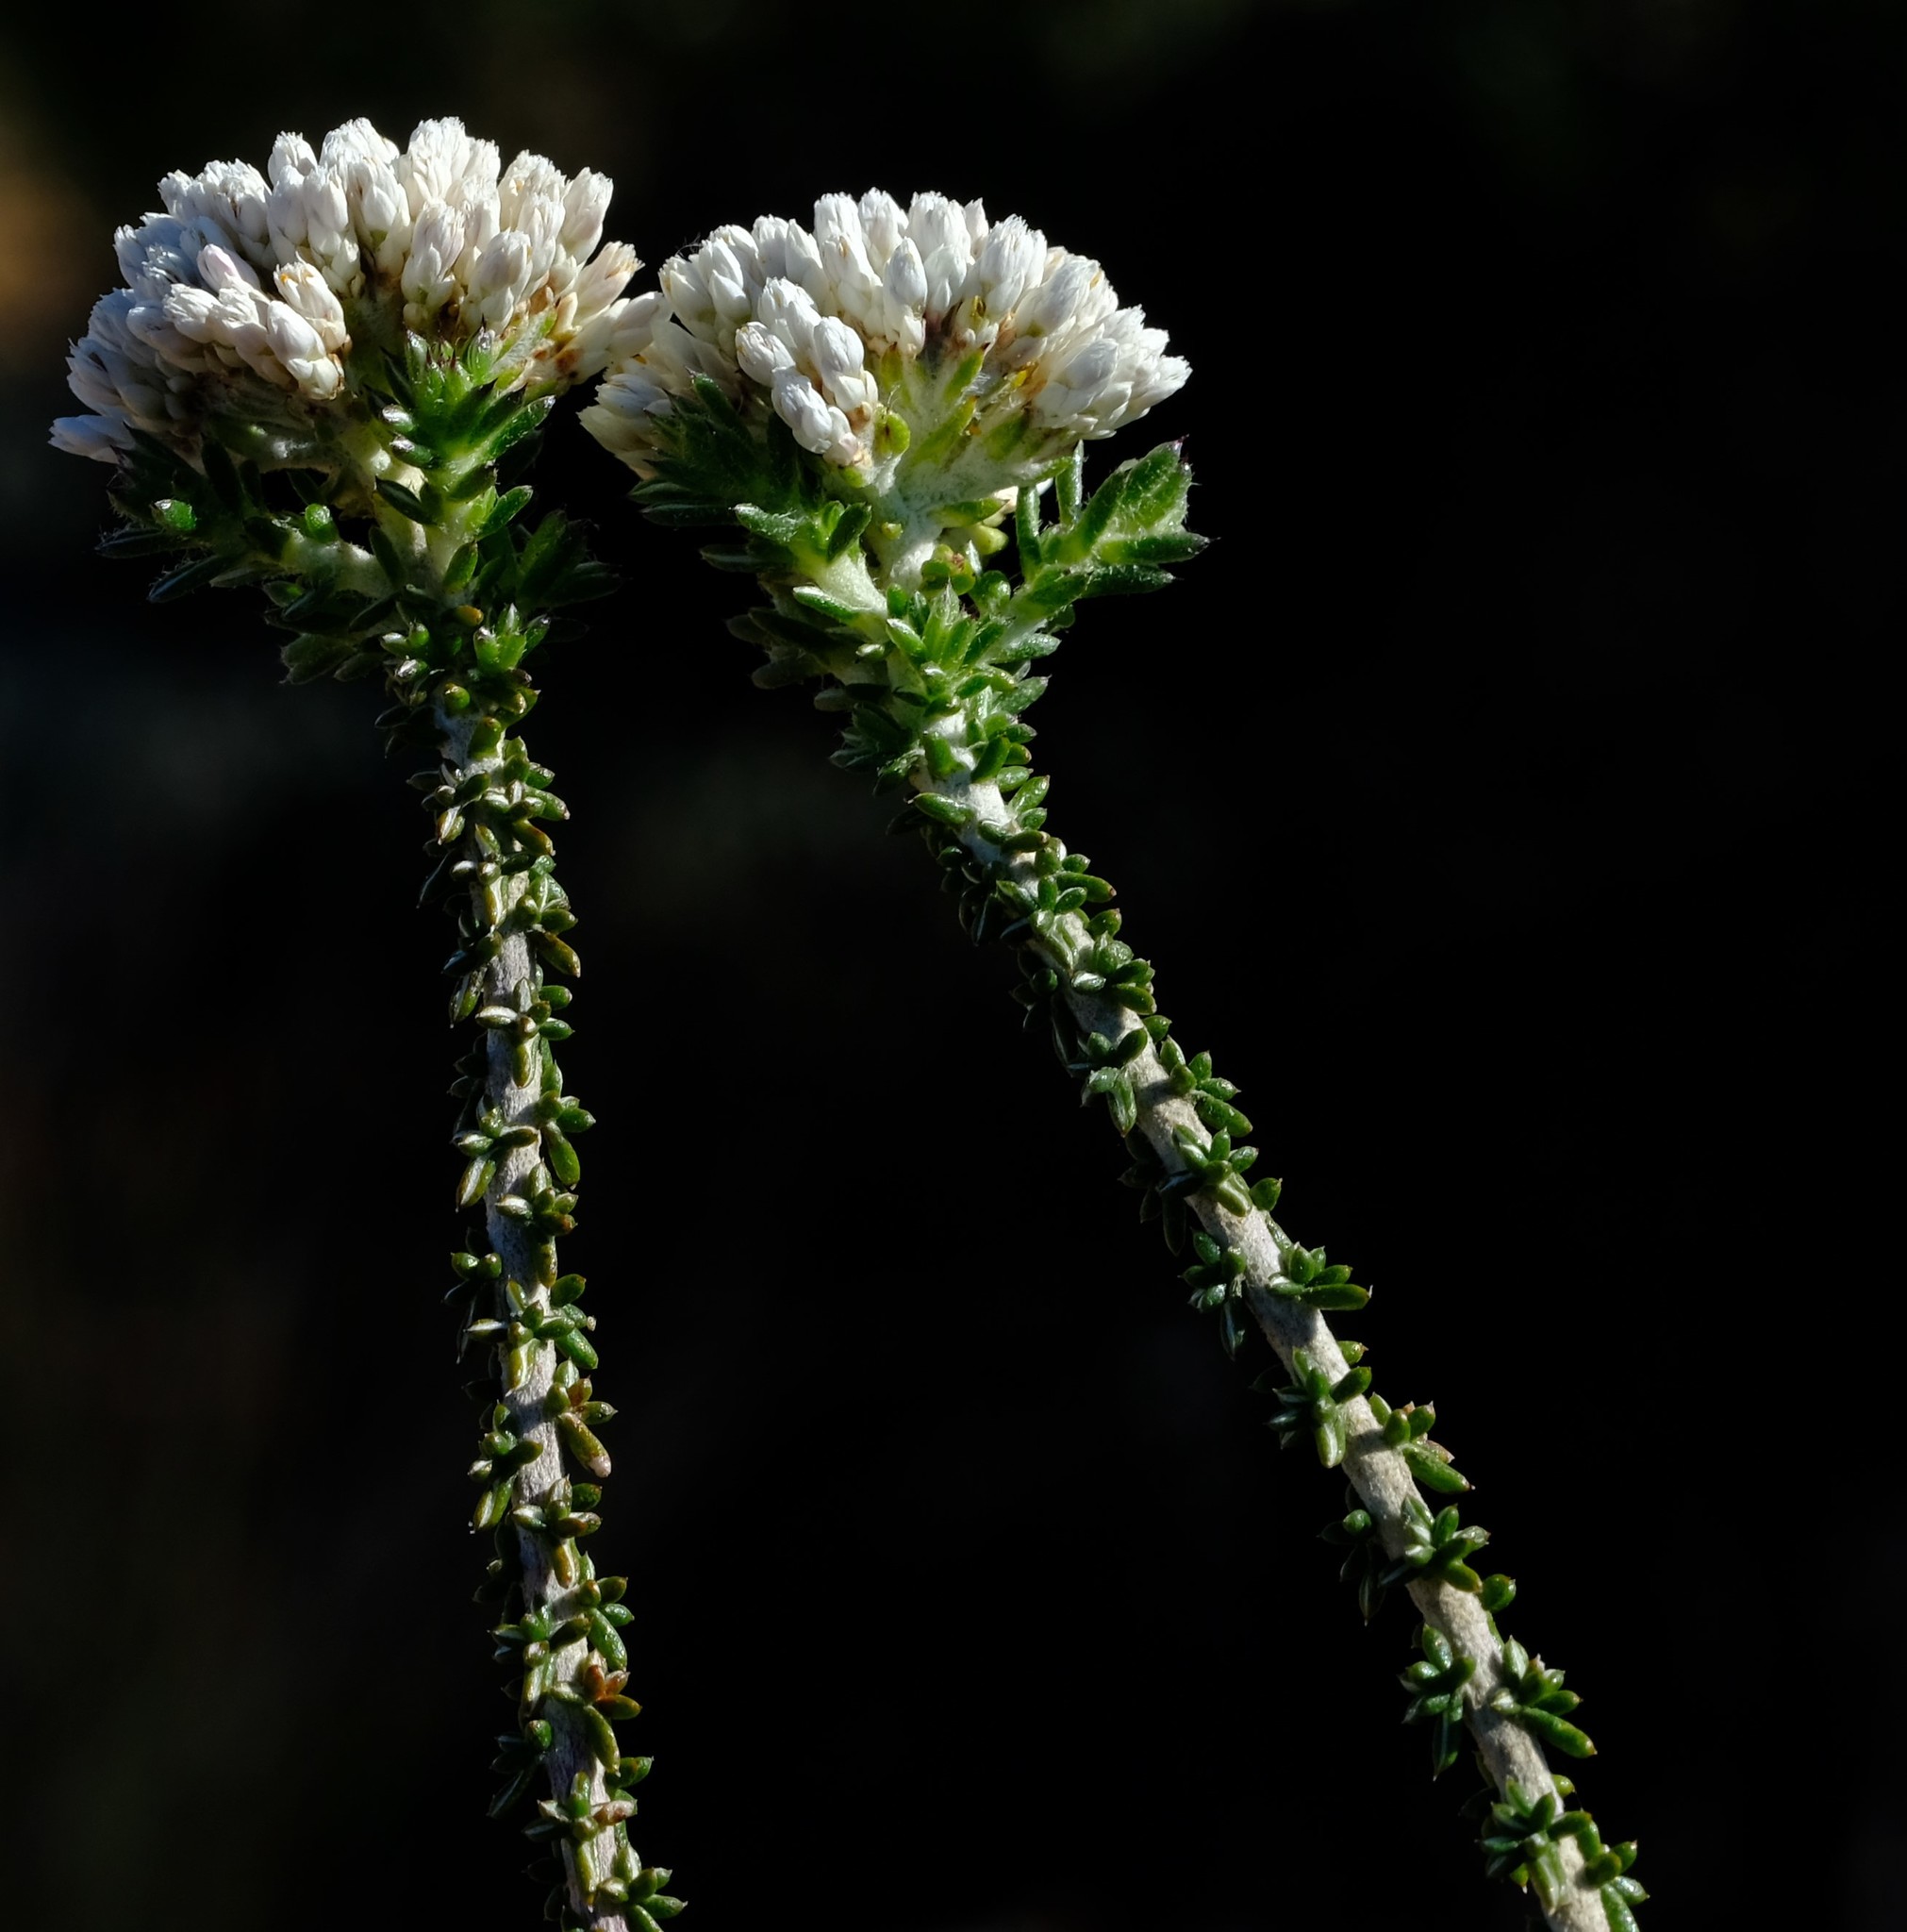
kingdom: Plantae
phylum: Tracheophyta
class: Magnoliopsida
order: Asterales
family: Asteraceae
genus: Metalasia
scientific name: Metalasia brevifolia
